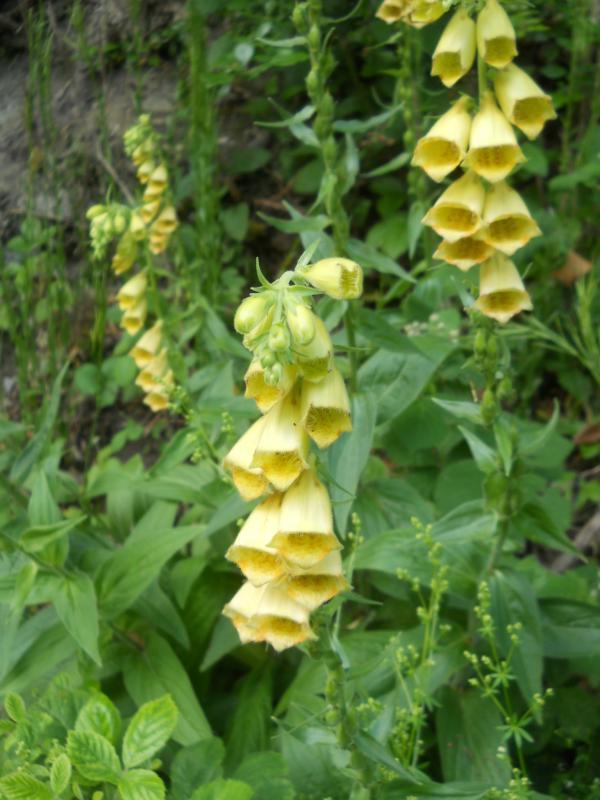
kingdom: Plantae
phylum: Tracheophyta
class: Magnoliopsida
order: Lamiales
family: Plantaginaceae
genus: Digitalis
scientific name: Digitalis grandiflora
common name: Yellow foxglove
